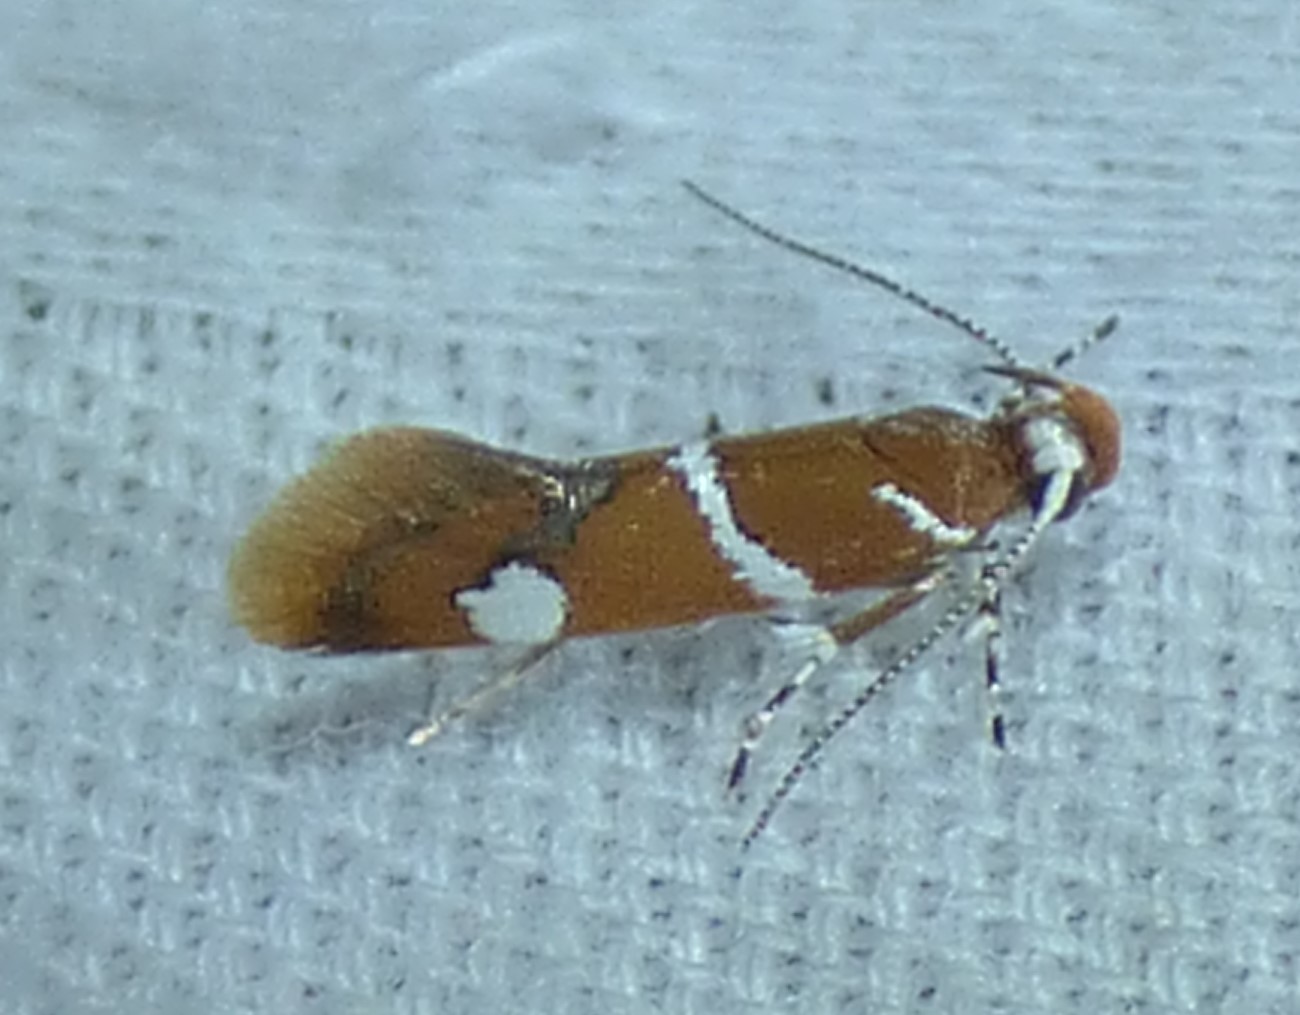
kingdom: Animalia
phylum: Arthropoda
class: Insecta
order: Lepidoptera
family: Oecophoridae
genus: Promalactis
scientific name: Promalactis suzukiella
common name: Moth
